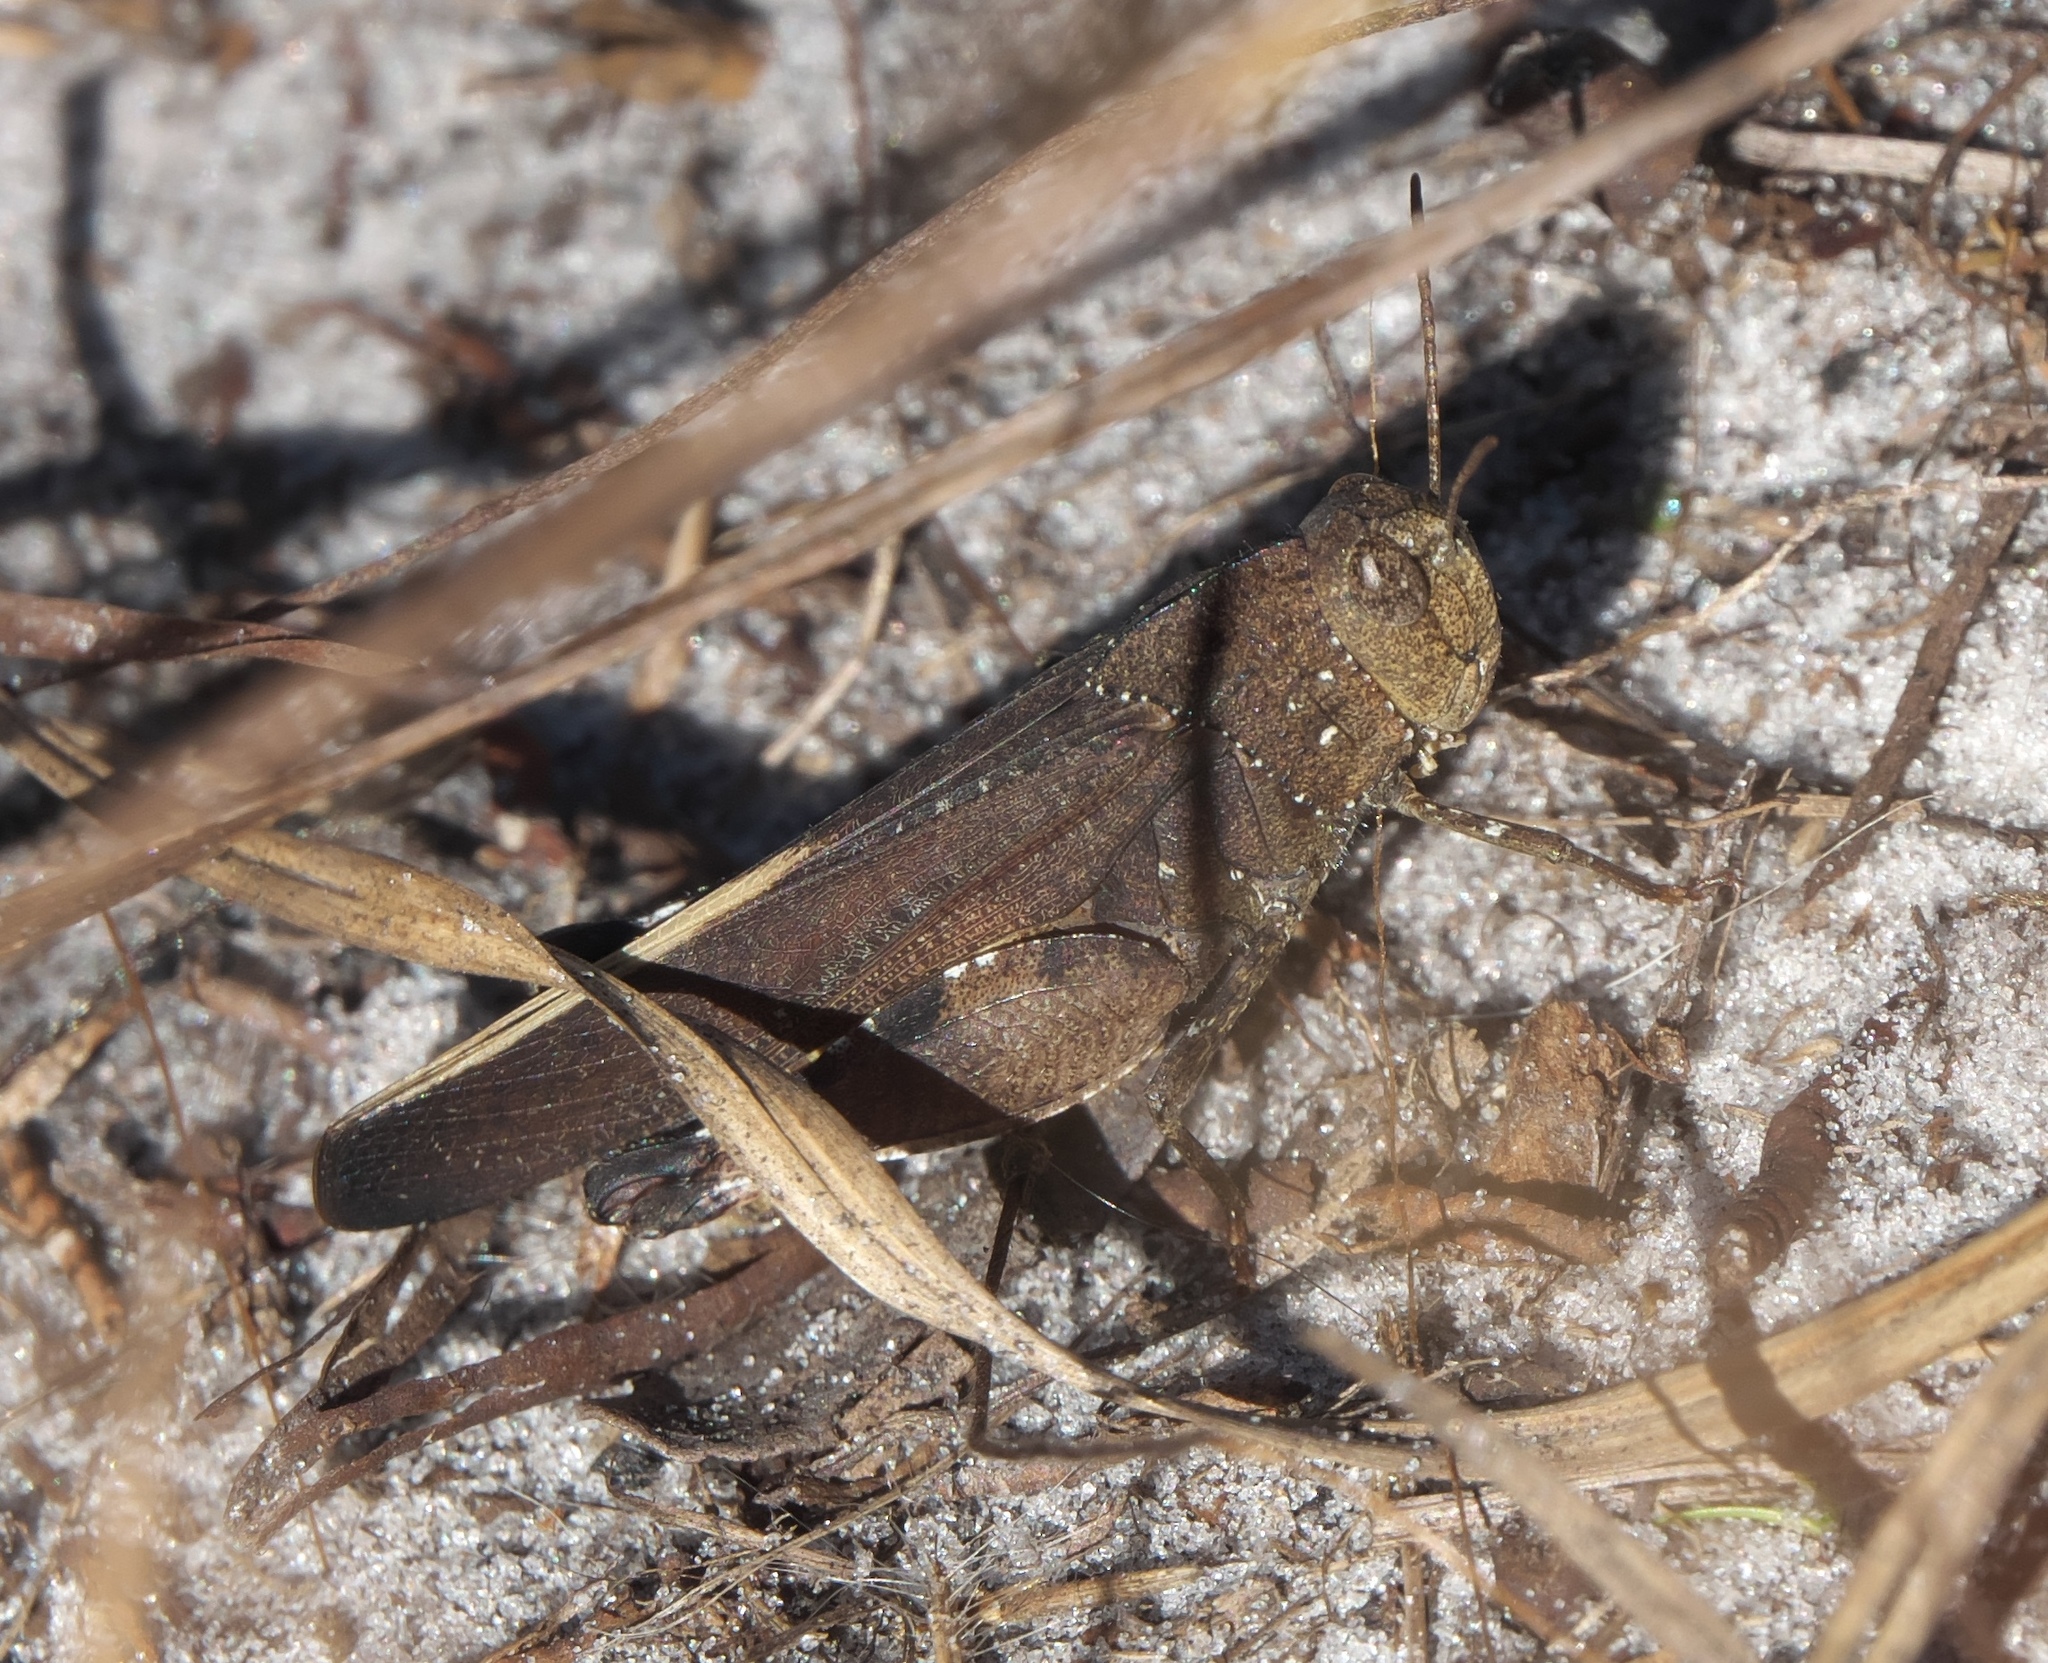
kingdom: Animalia
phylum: Arthropoda
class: Insecta
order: Orthoptera
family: Acrididae
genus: Arphia
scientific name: Arphia granulata
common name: Southern yellow-winged grasshopper
